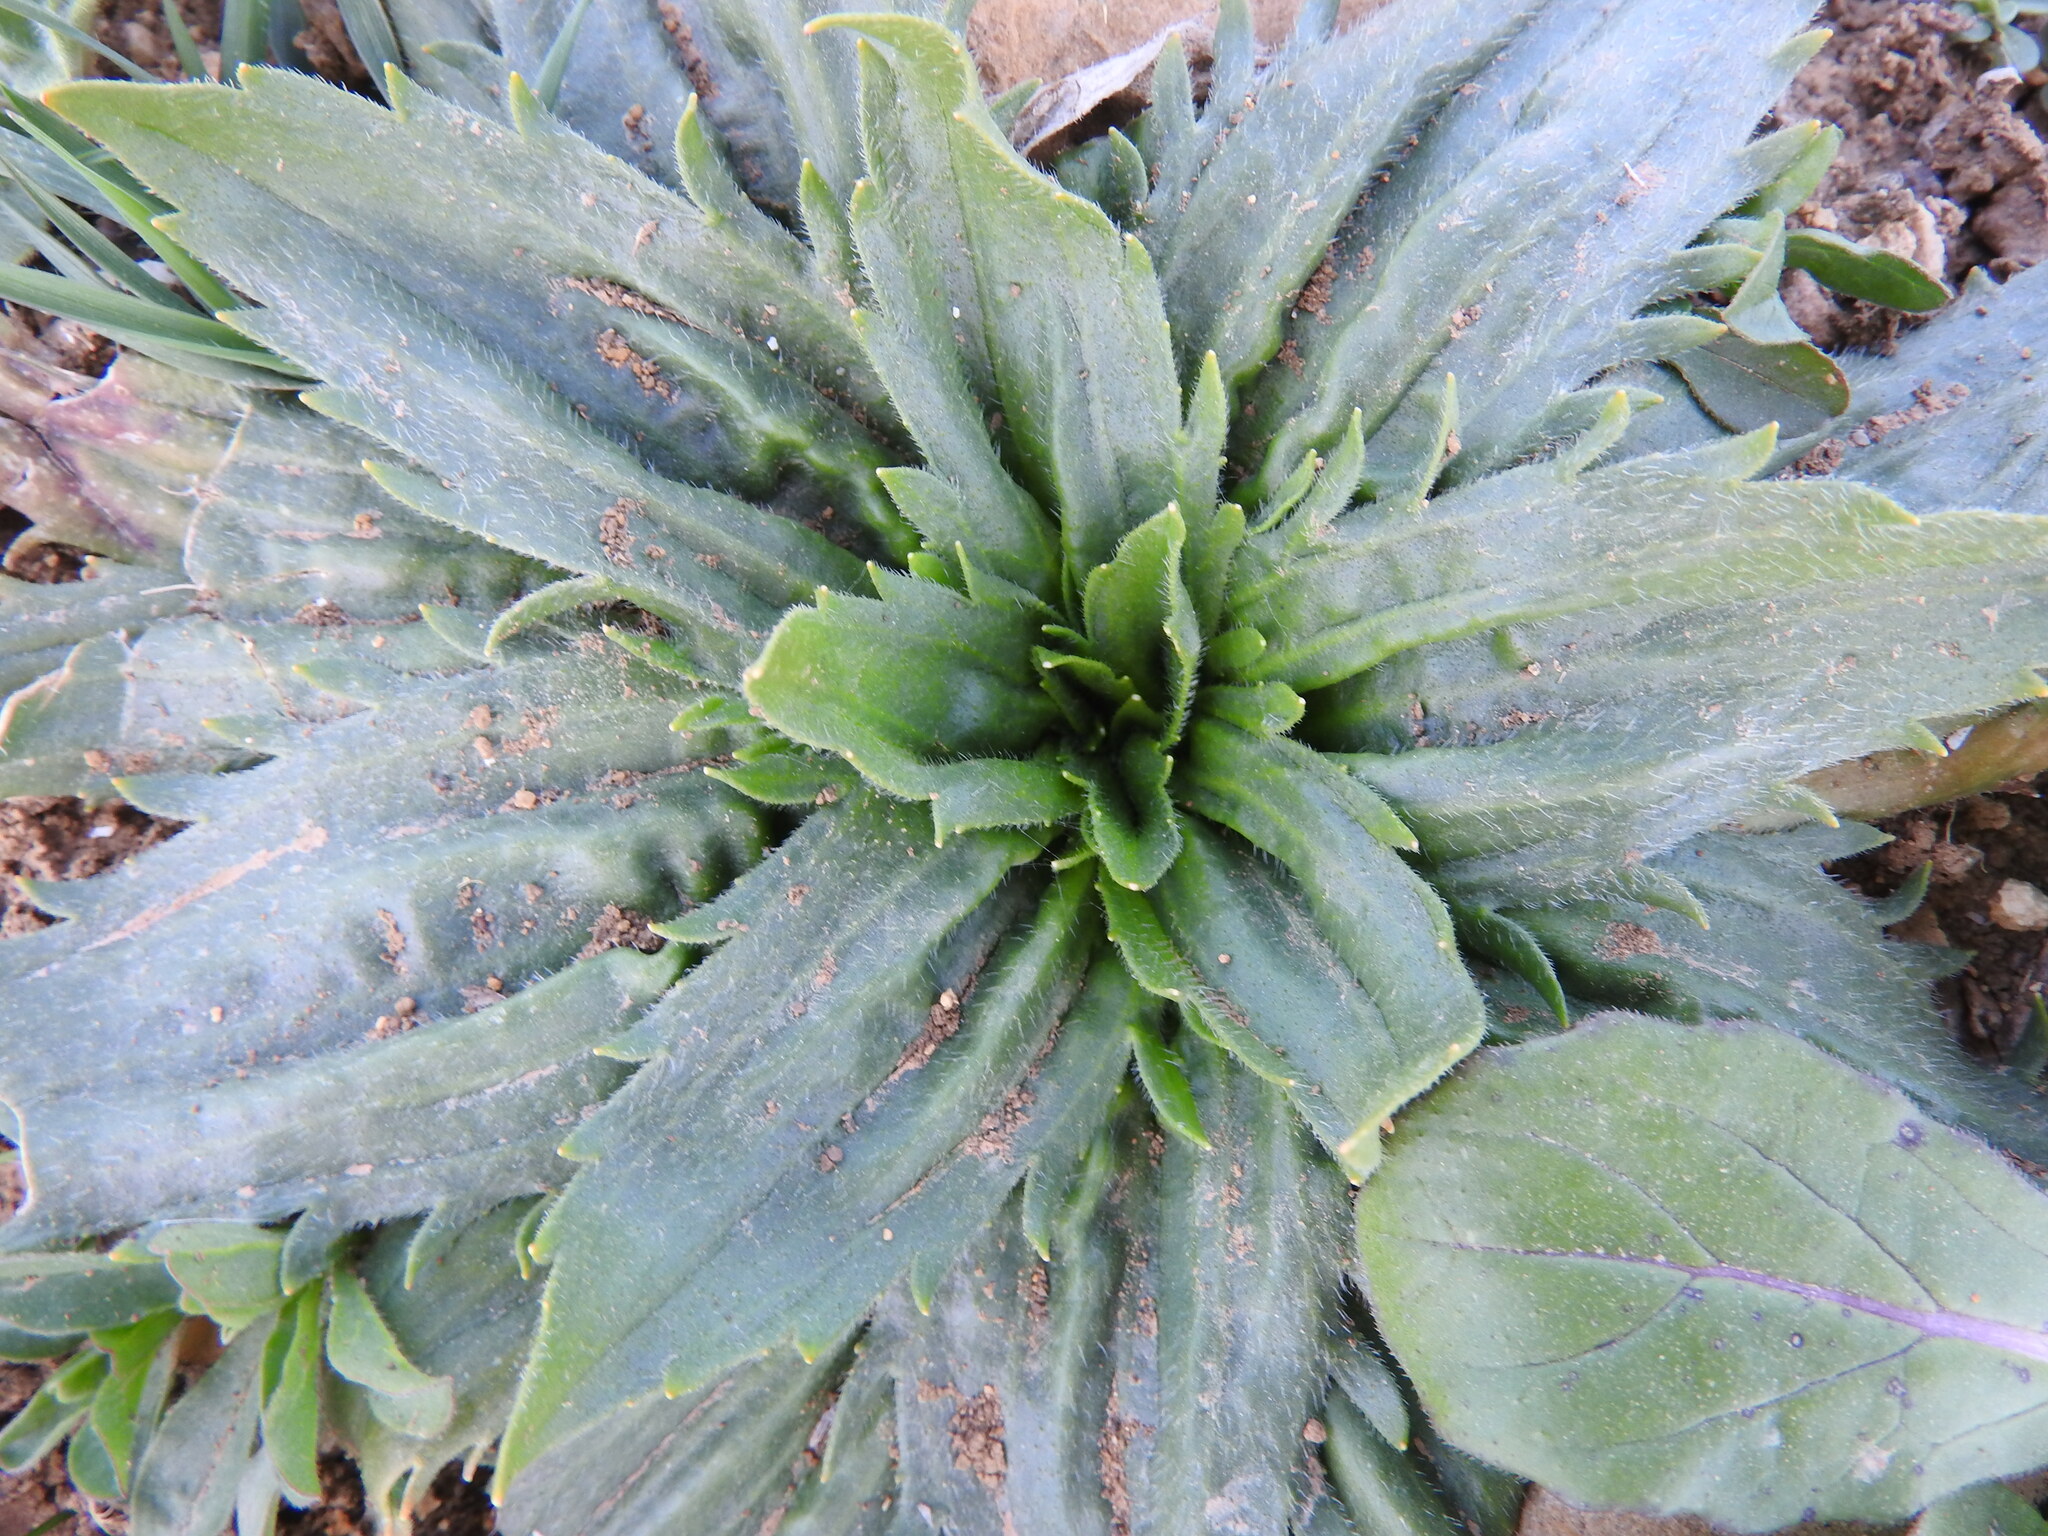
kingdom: Plantae
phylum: Tracheophyta
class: Magnoliopsida
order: Lamiales
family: Plantaginaceae
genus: Plantago
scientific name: Plantago serraria
